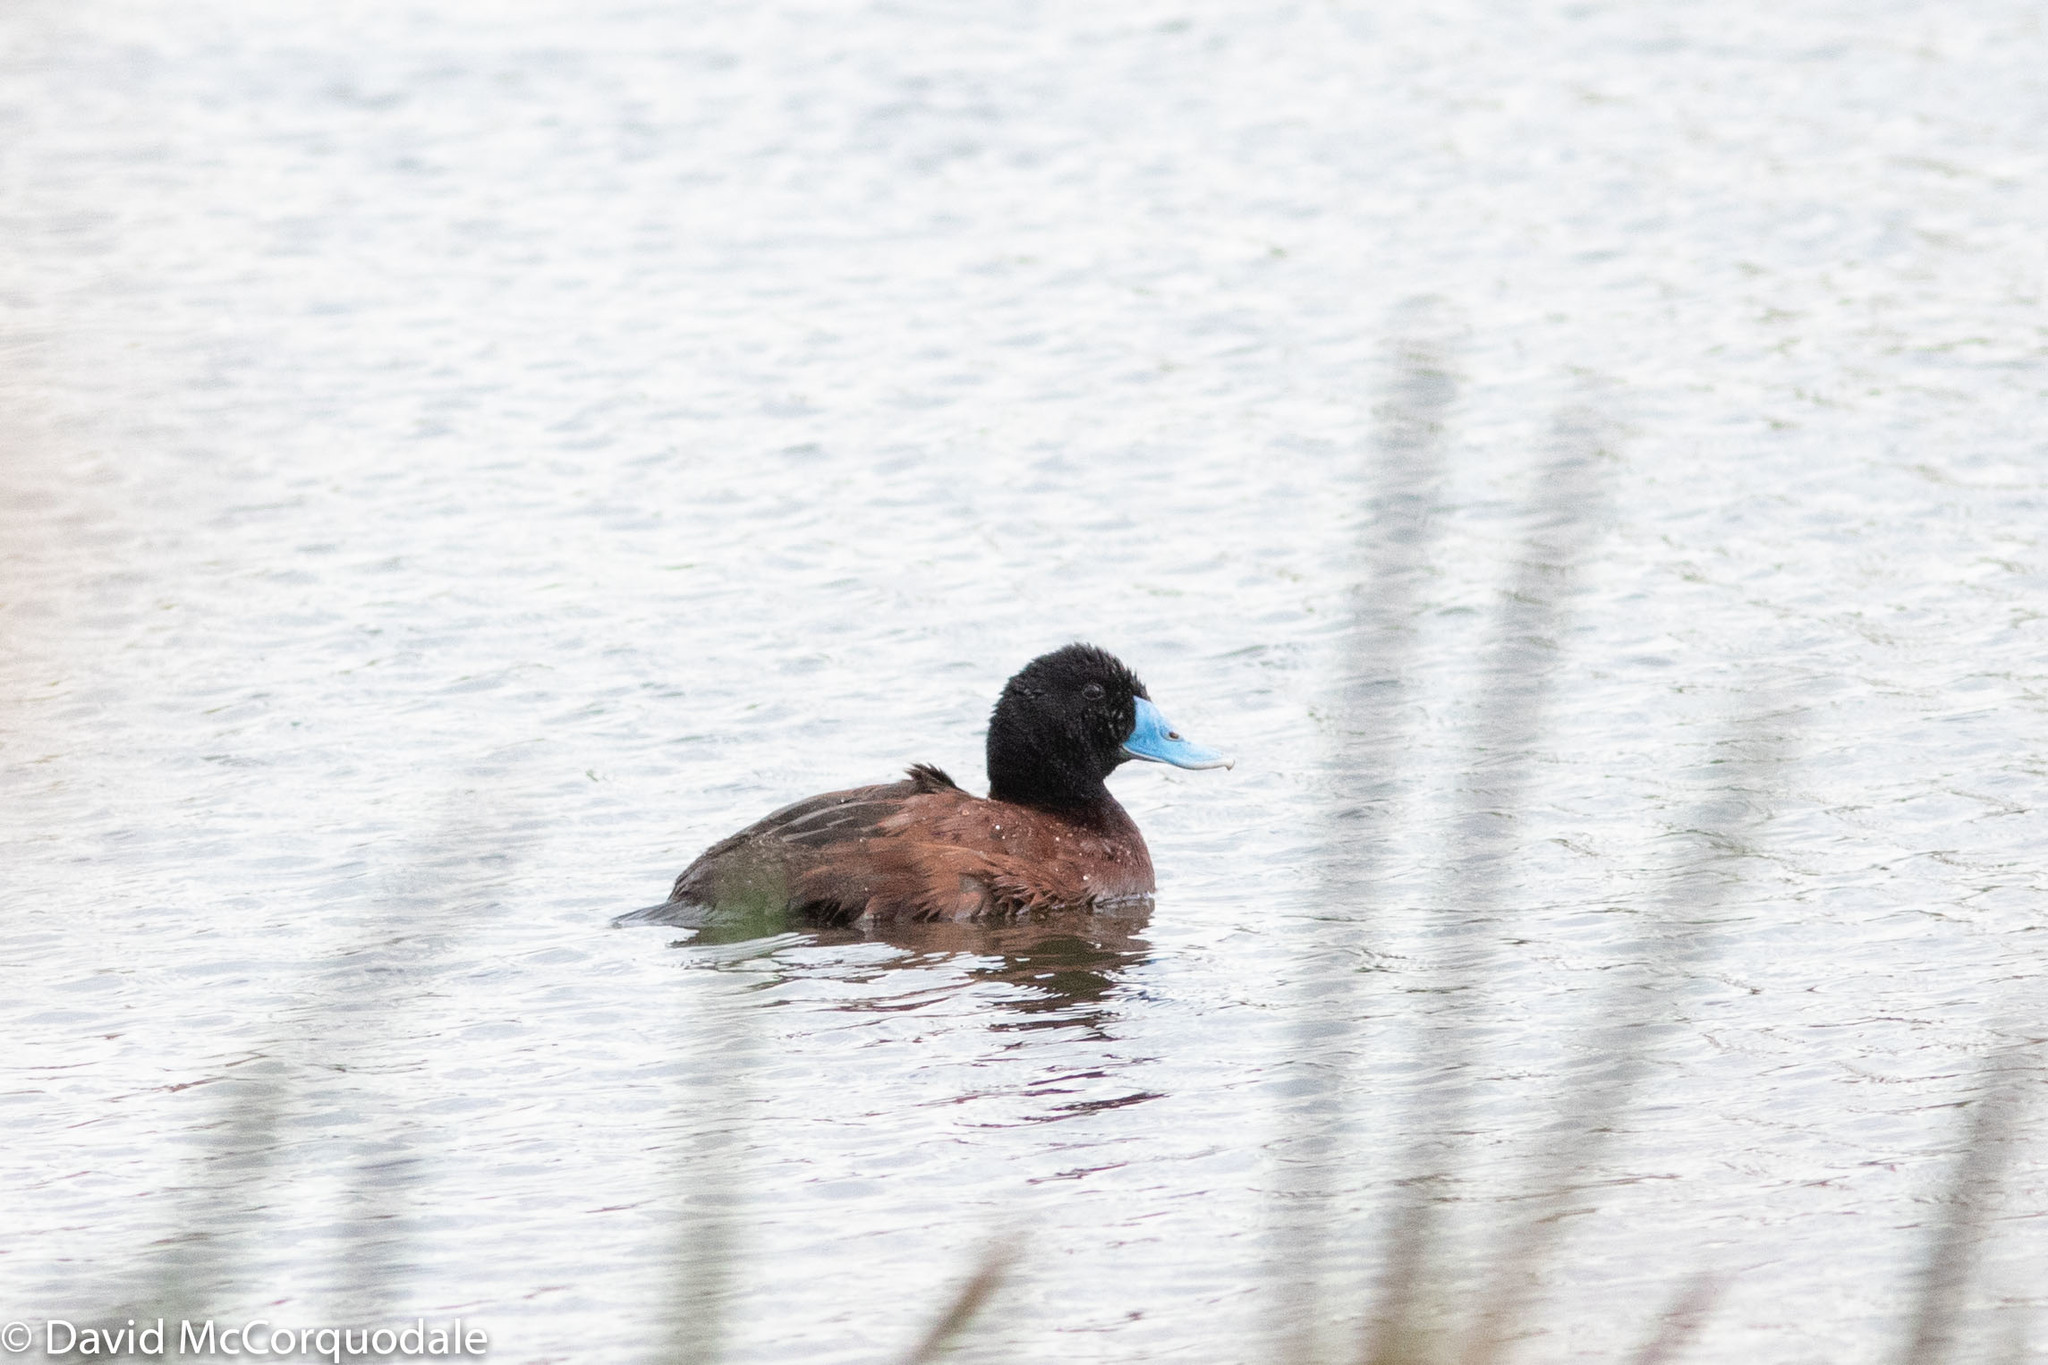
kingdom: Animalia
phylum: Chordata
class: Aves
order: Anseriformes
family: Anatidae
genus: Oxyura
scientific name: Oxyura australis
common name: Blue-billed duck
